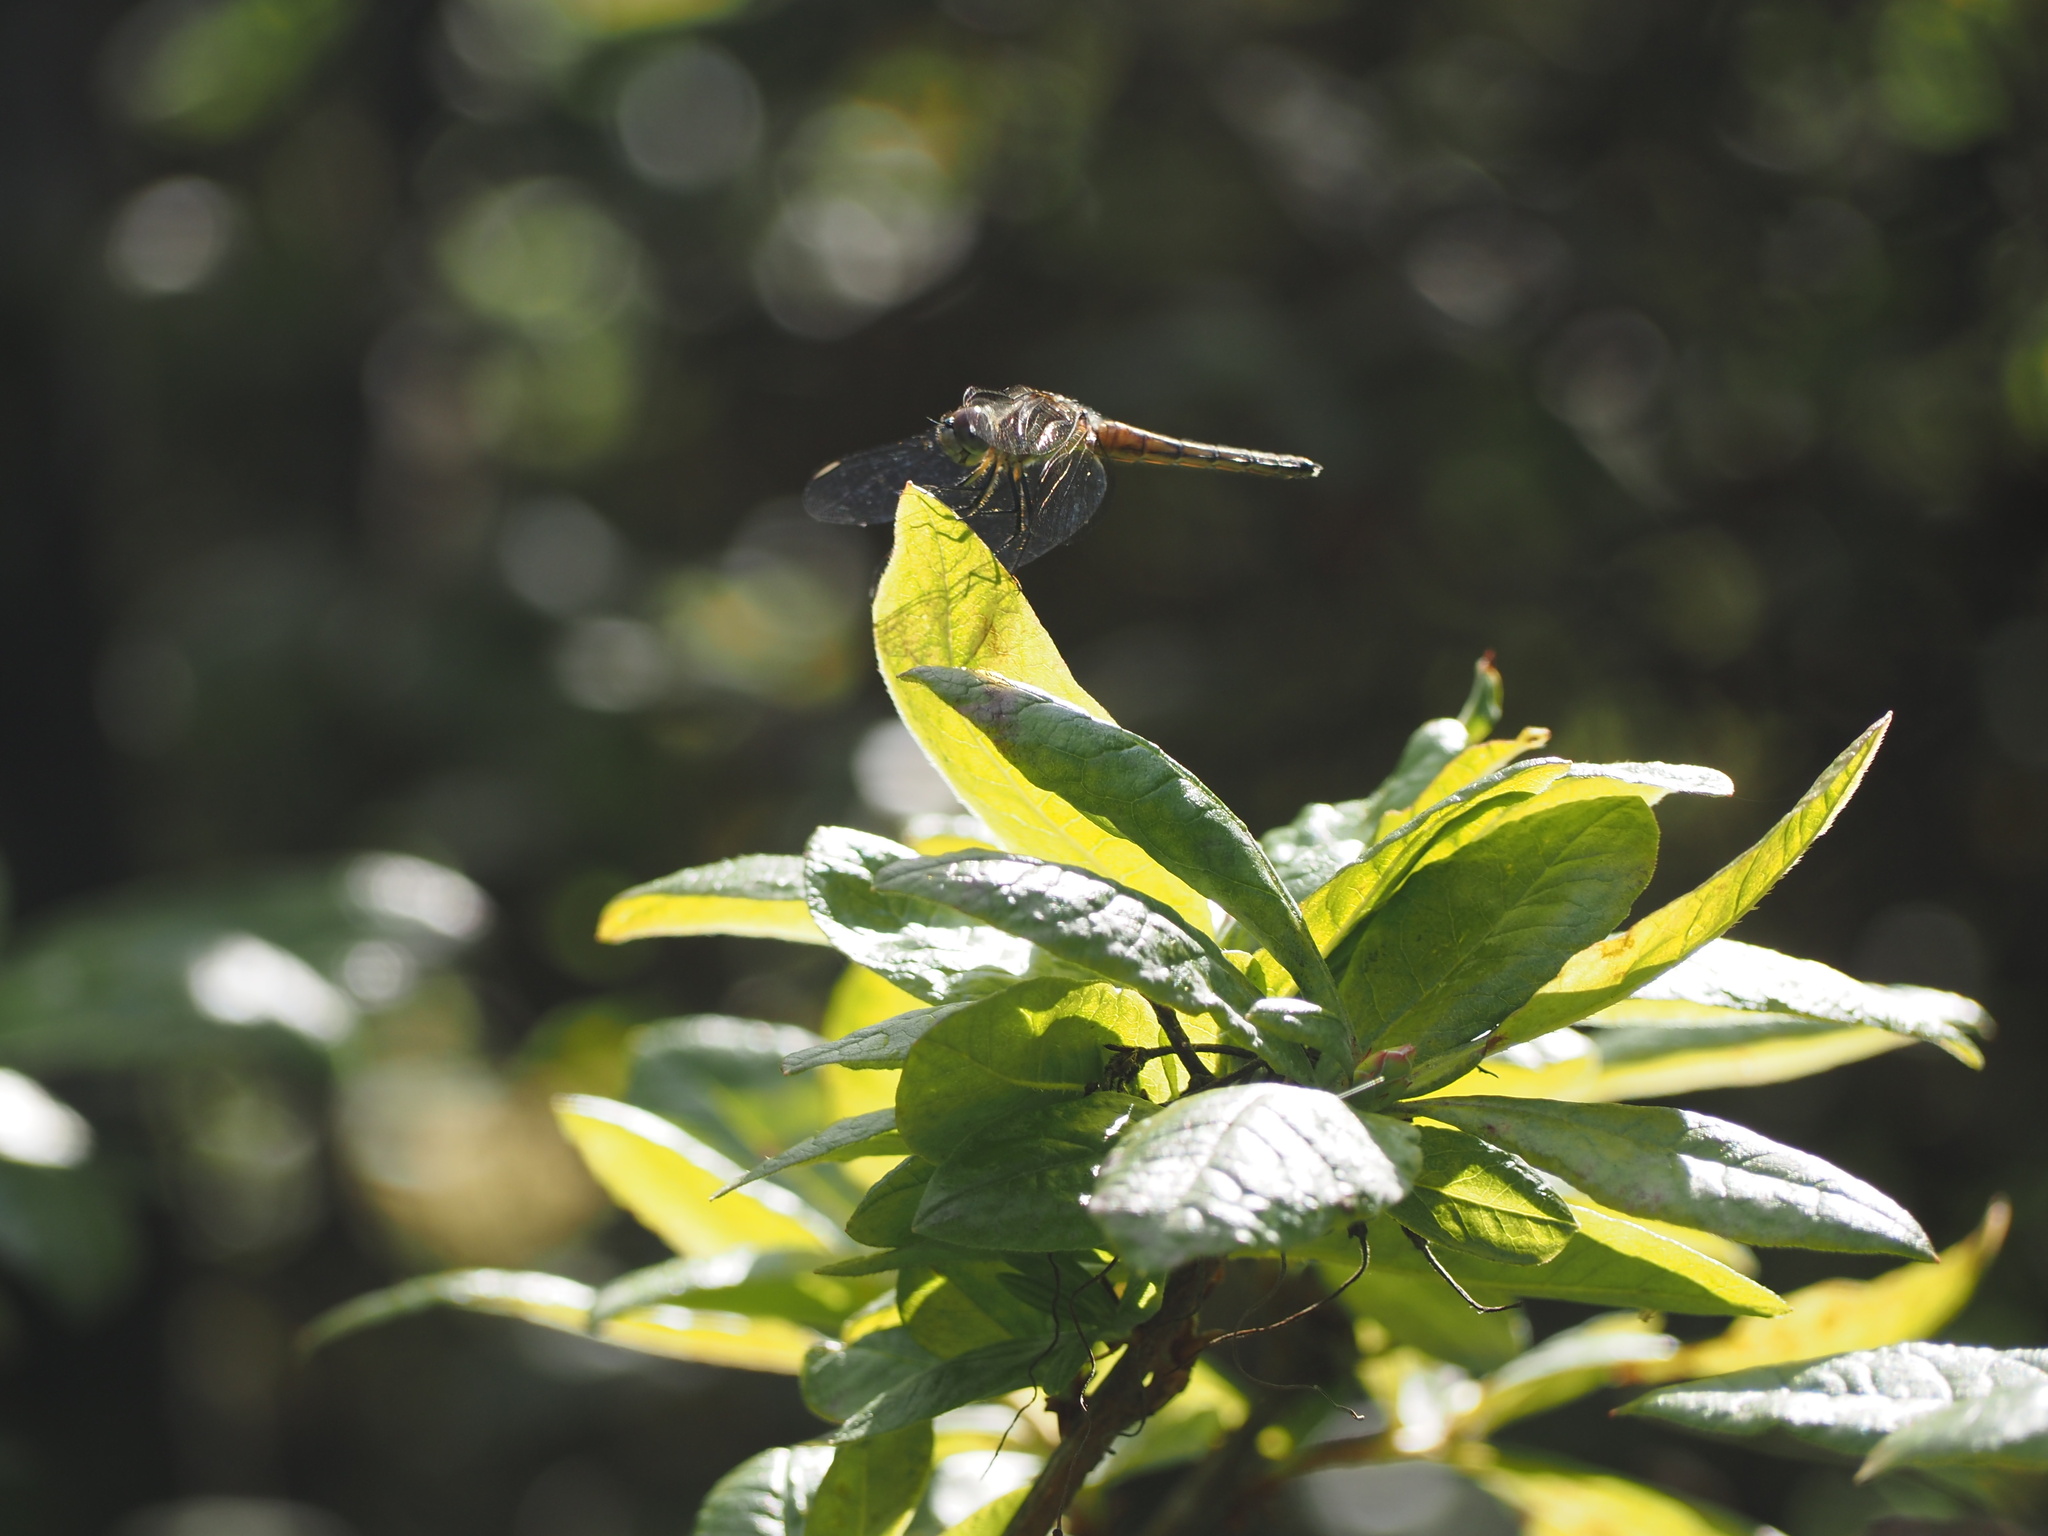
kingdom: Animalia
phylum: Arthropoda
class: Insecta
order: Odonata
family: Libellulidae
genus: Pachydiplax
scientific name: Pachydiplax longipennis
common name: Blue dasher
